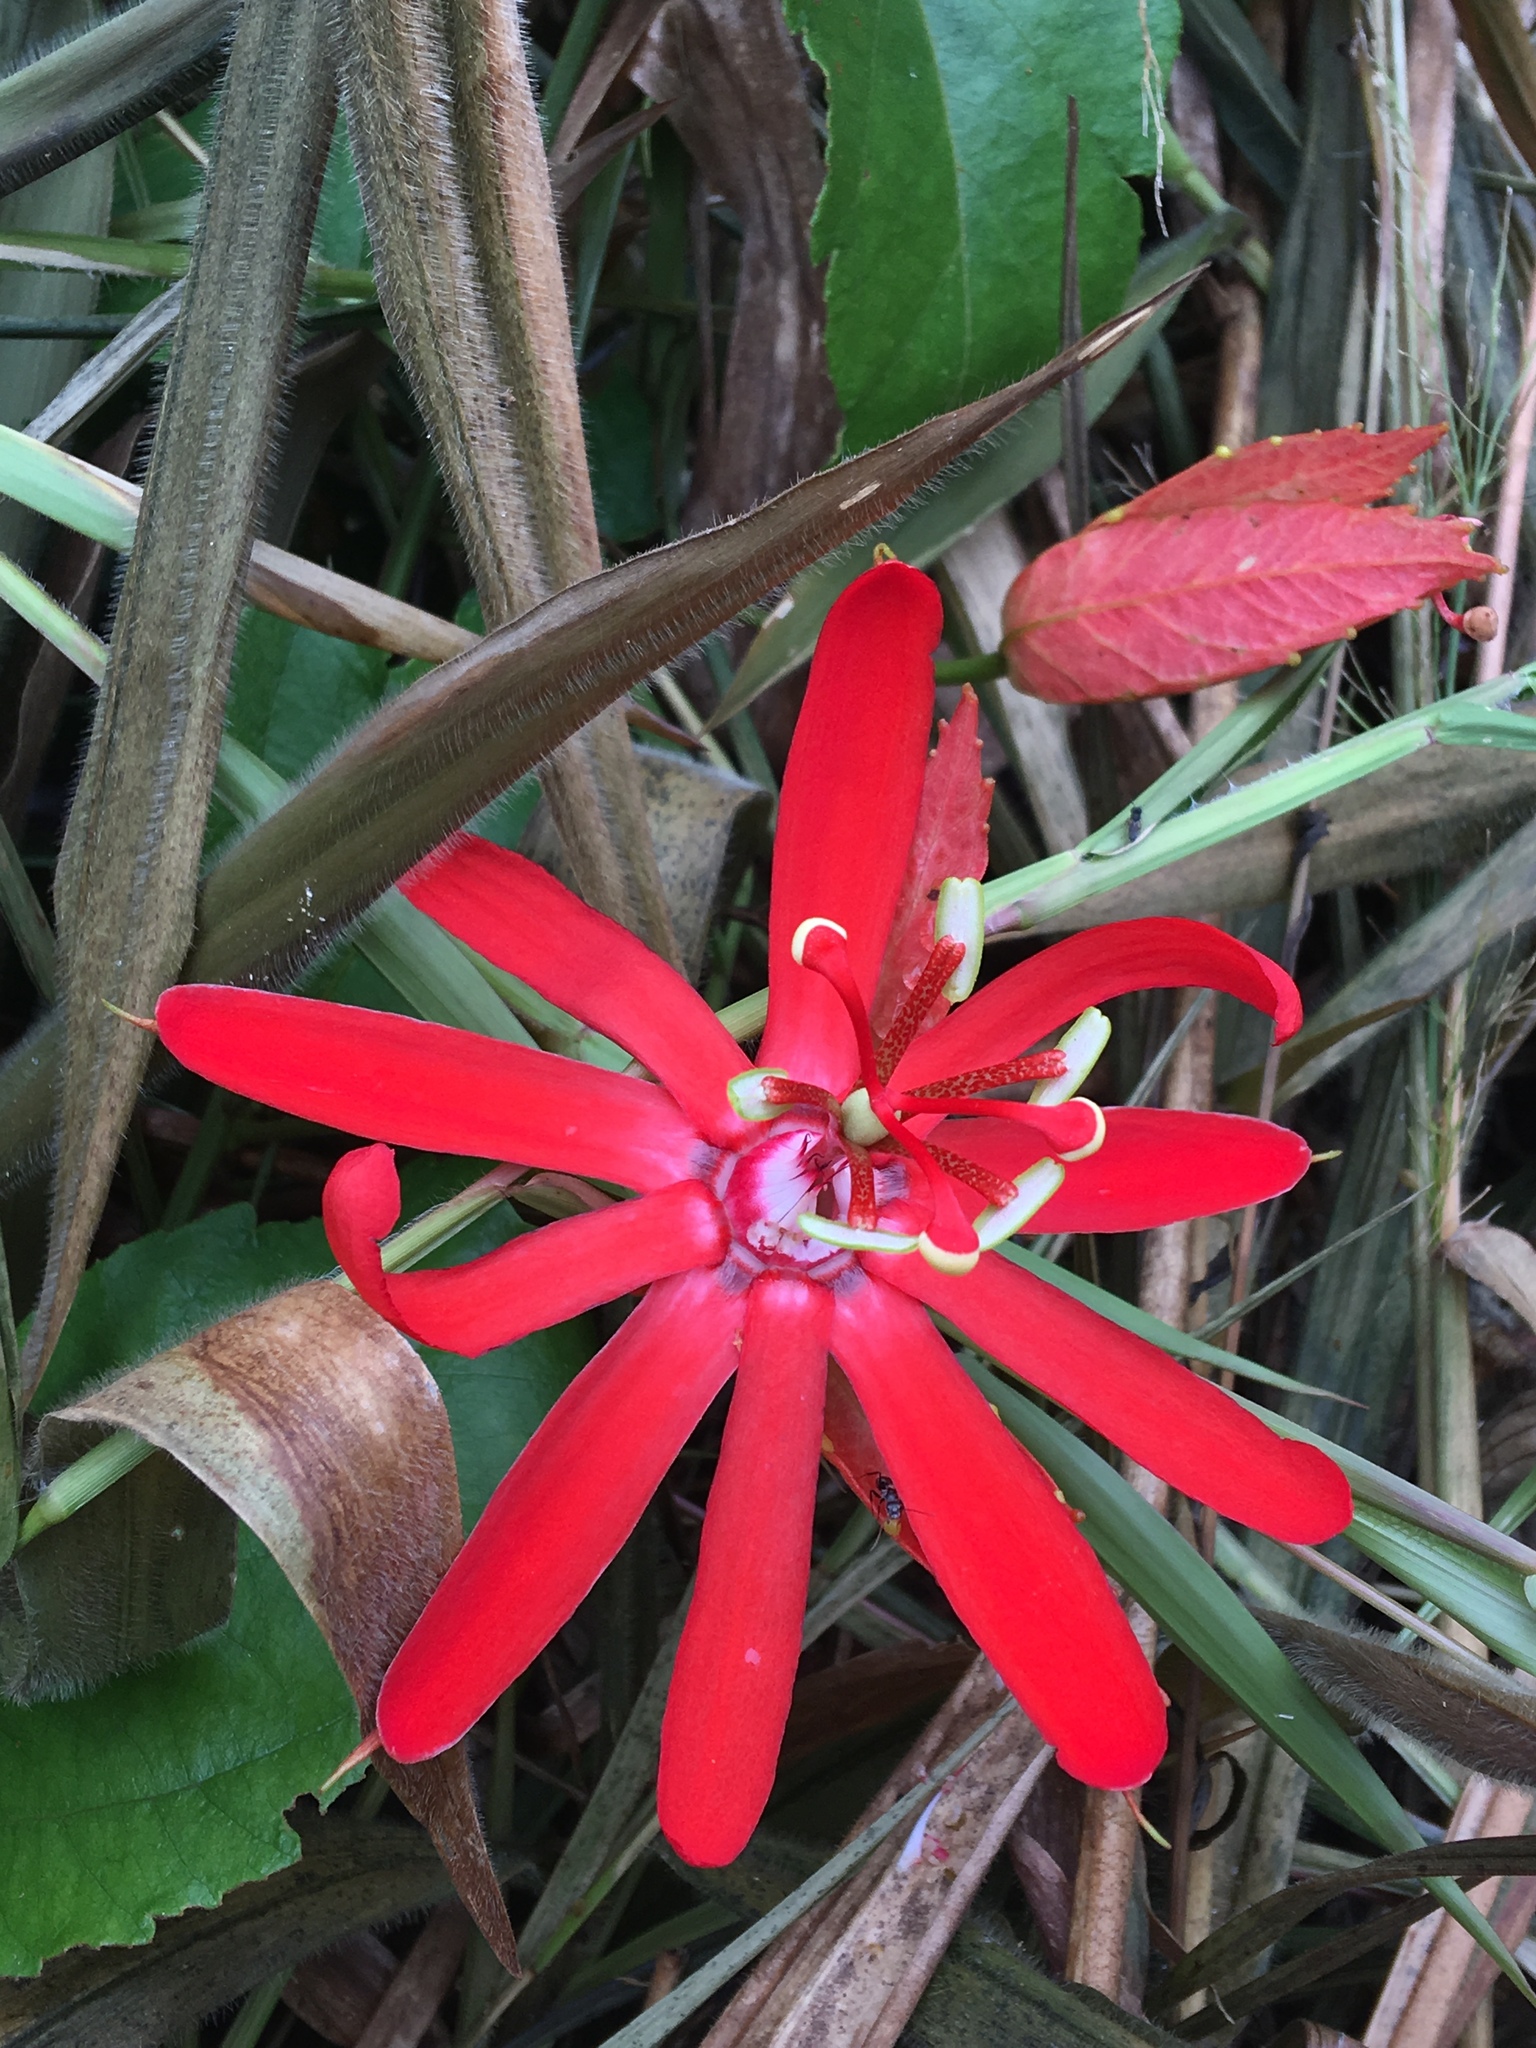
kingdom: Plantae
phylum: Tracheophyta
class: Magnoliopsida
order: Malpighiales
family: Passifloraceae
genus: Passiflora
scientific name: Passiflora tholozanii
